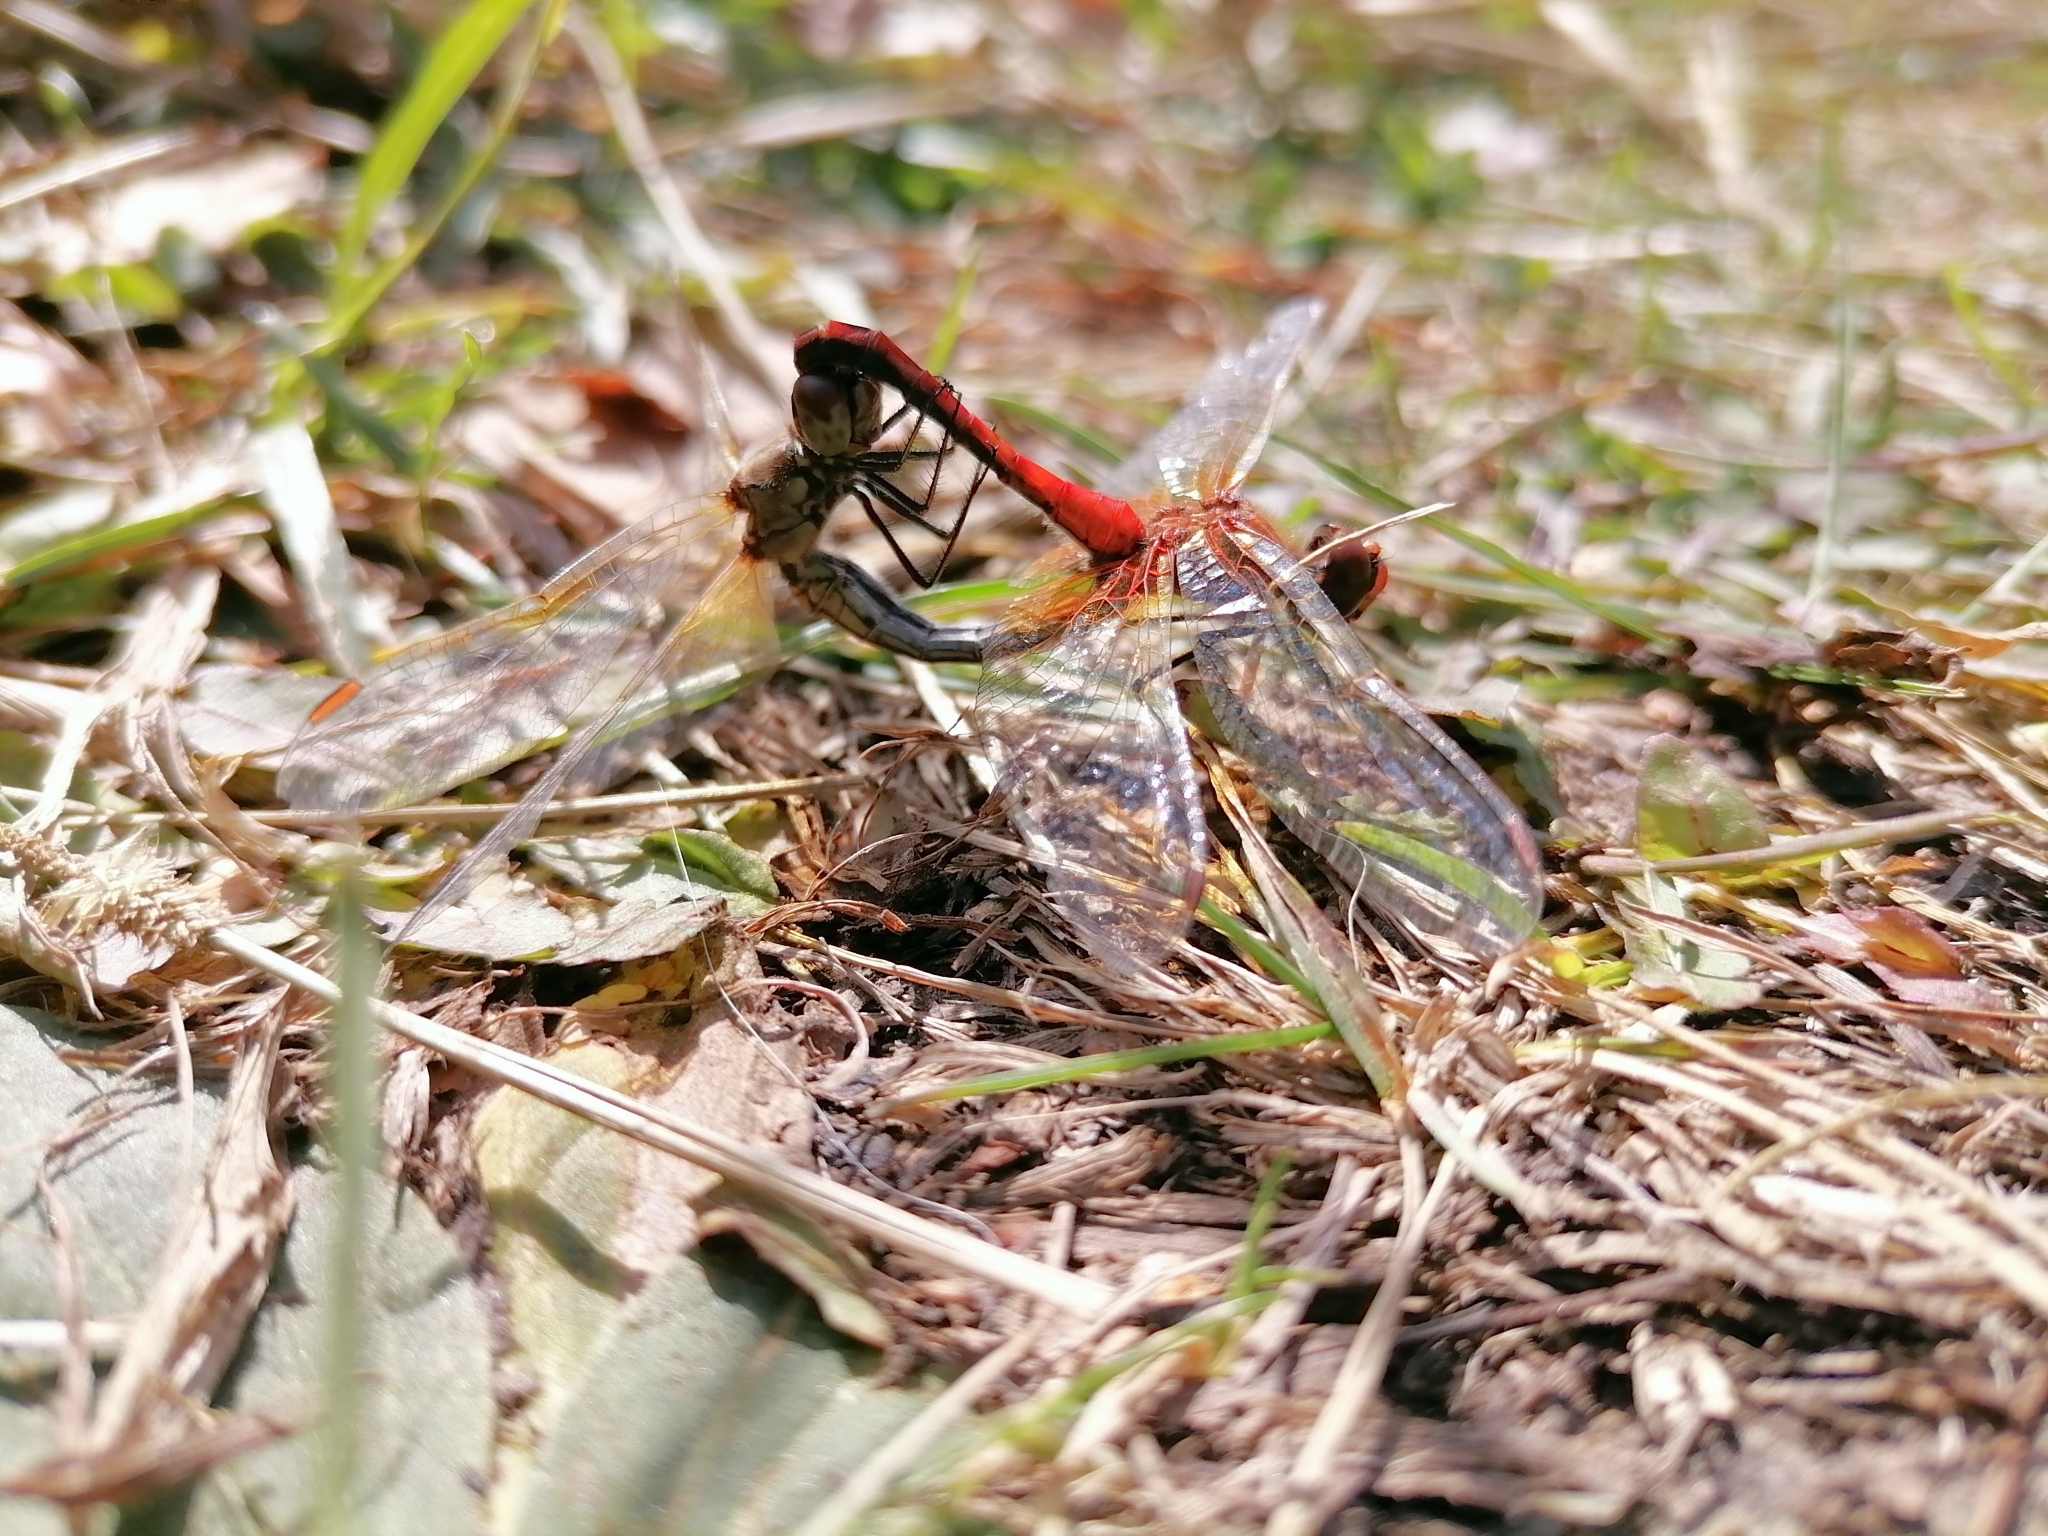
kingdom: Animalia
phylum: Arthropoda
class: Insecta
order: Odonata
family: Libellulidae
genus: Sympetrum
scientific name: Sympetrum flaveolum
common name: Yellow-winged darter
